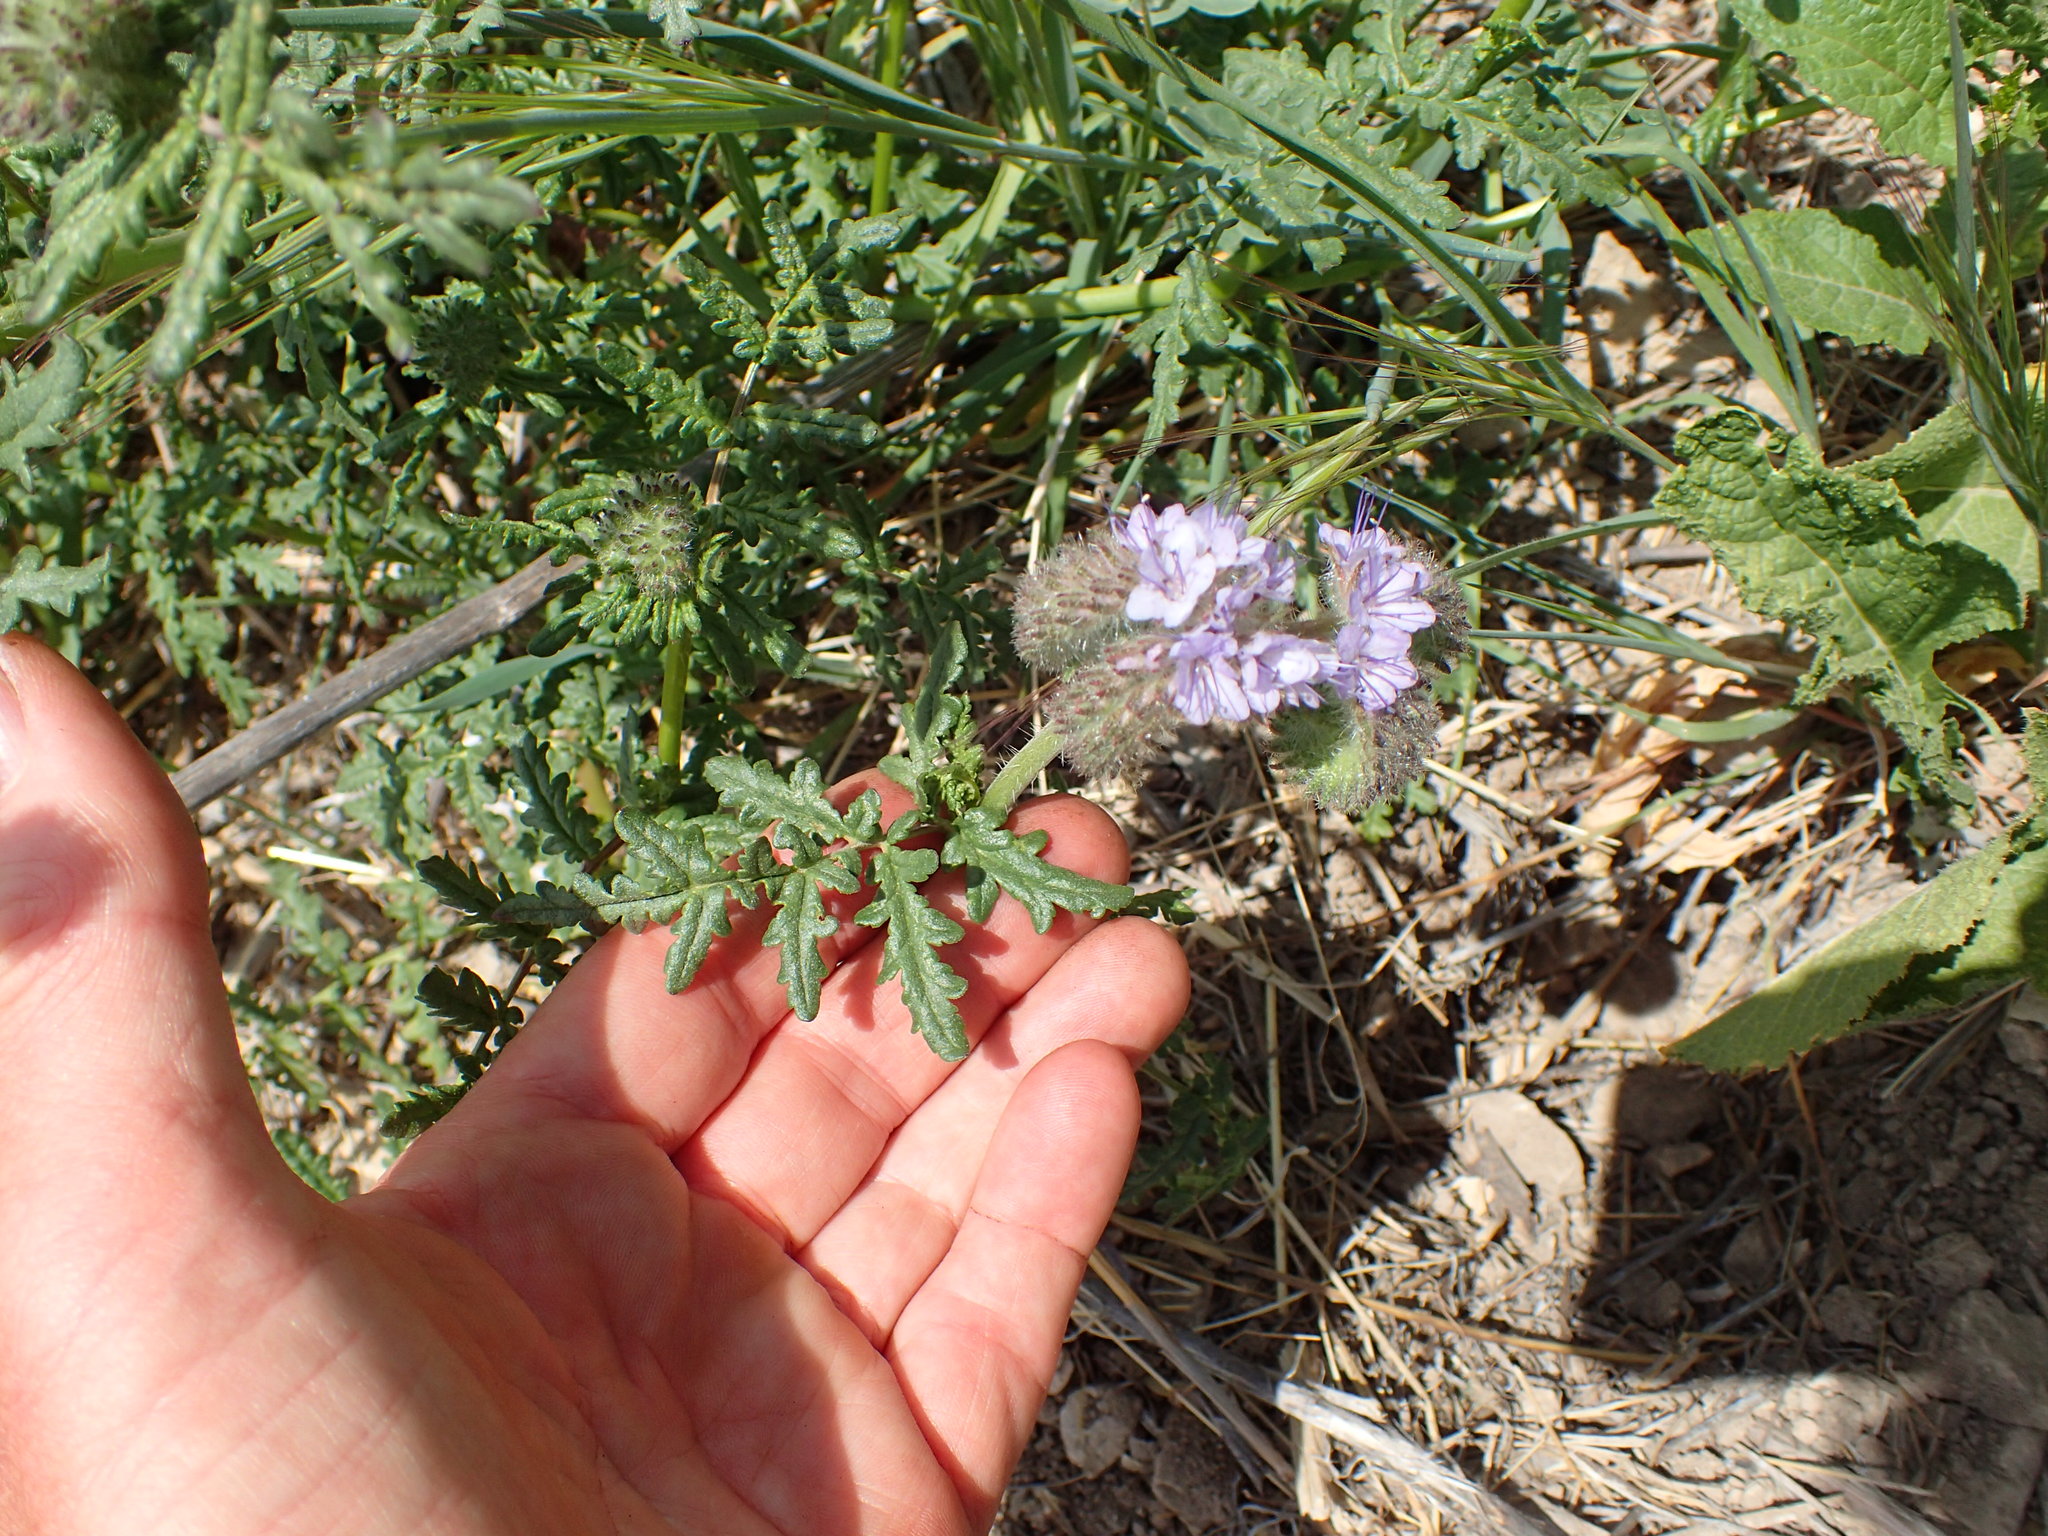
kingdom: Plantae
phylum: Tracheophyta
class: Magnoliopsida
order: Boraginales
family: Hydrophyllaceae
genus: Phacelia
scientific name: Phacelia tanacetifolia
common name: Phacelia
